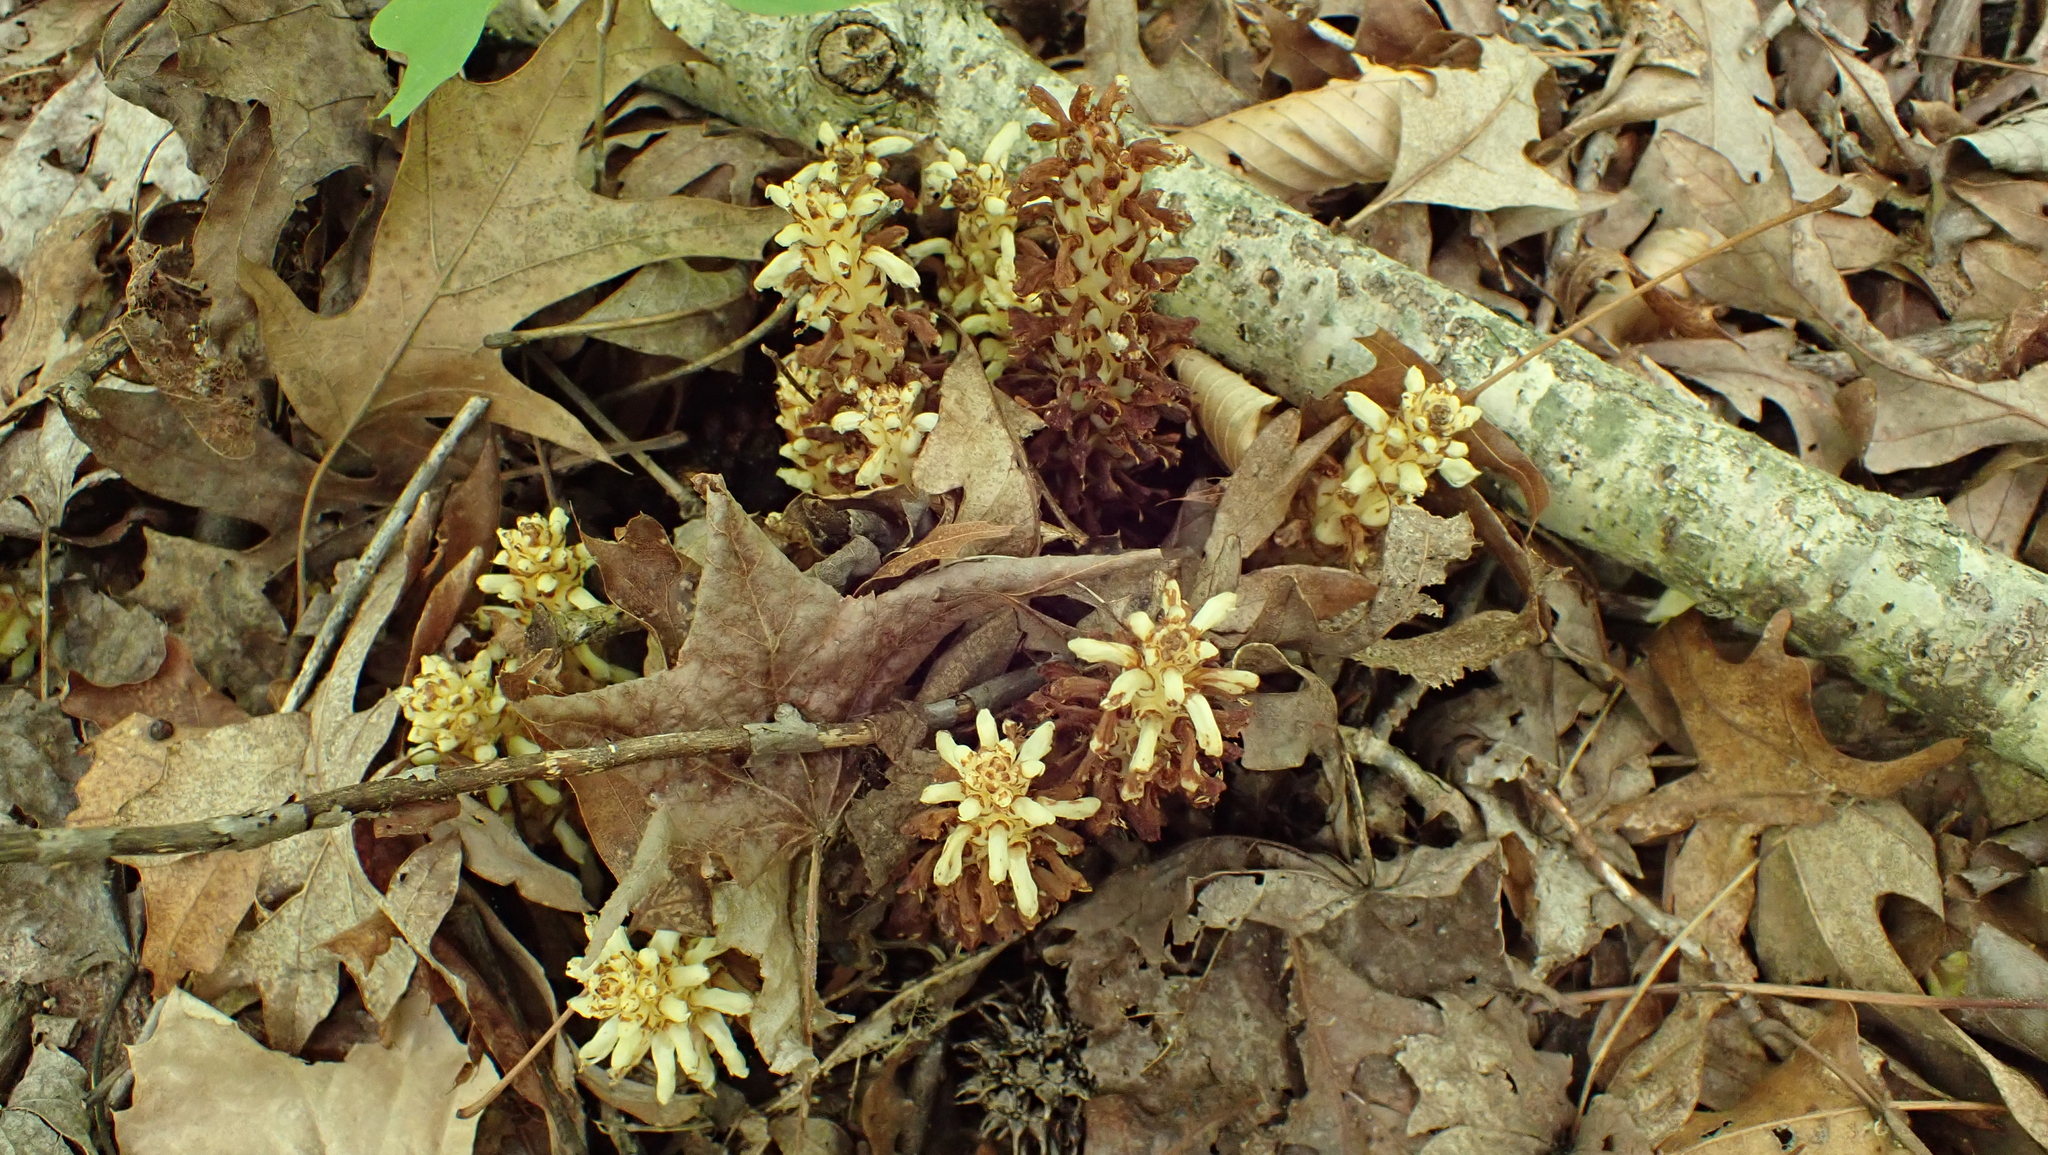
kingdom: Plantae
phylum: Tracheophyta
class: Magnoliopsida
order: Lamiales
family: Orobanchaceae
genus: Conopholis
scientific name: Conopholis americana
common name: American cancer-root
